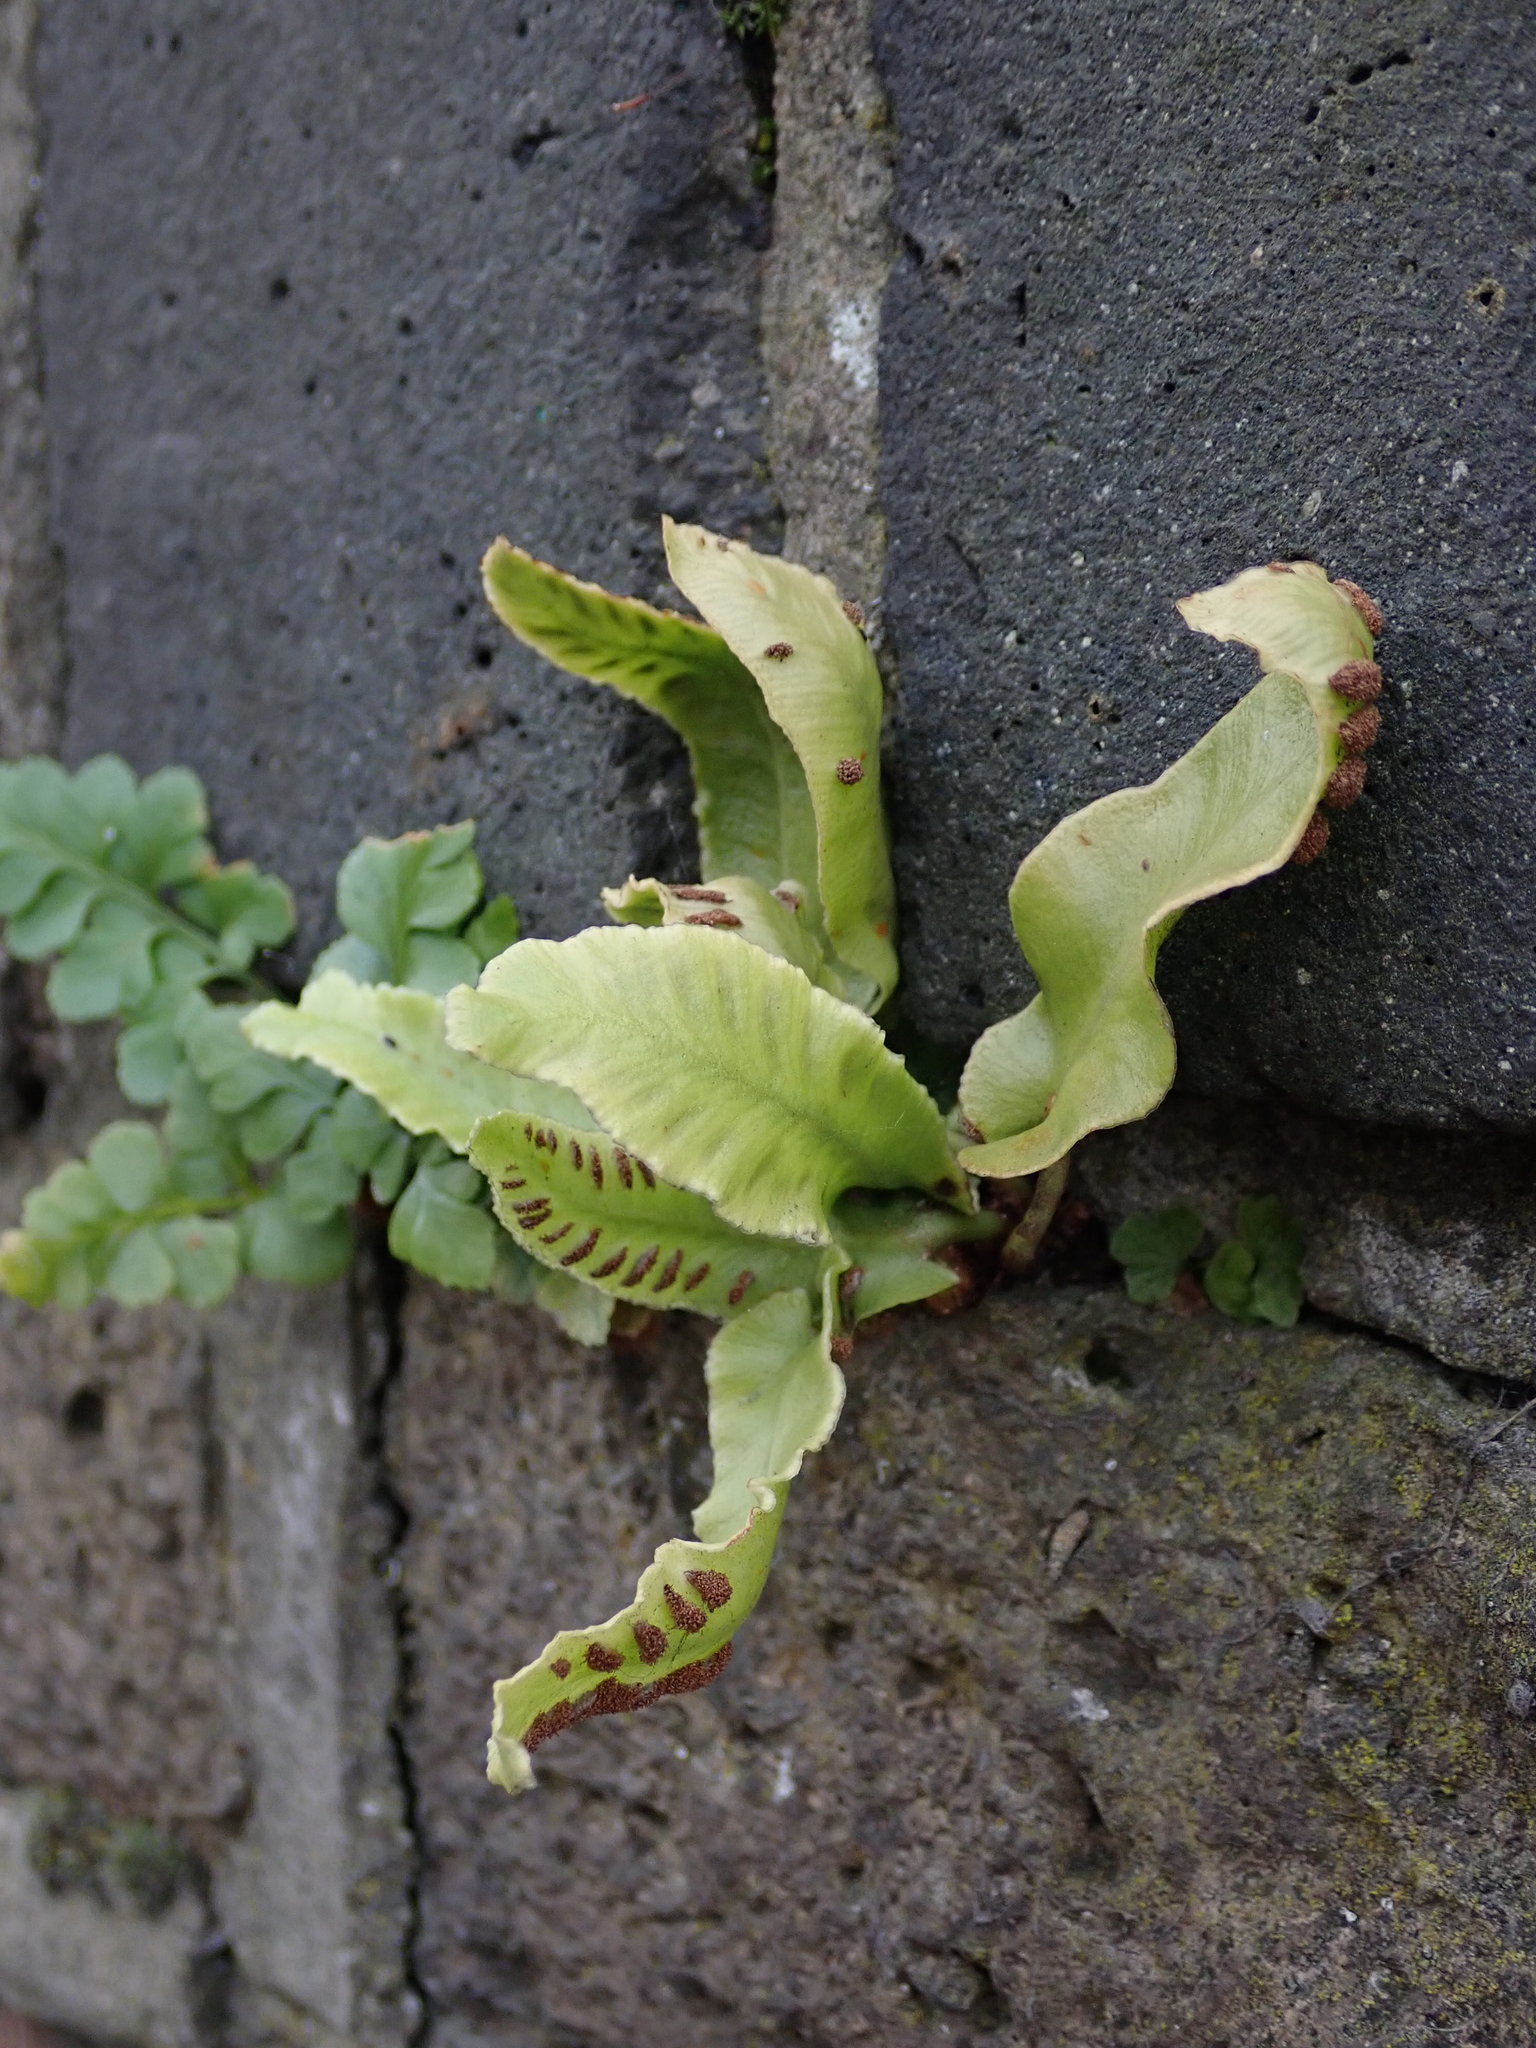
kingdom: Plantae
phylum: Tracheophyta
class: Polypodiopsida
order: Polypodiales
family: Aspleniaceae
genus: Asplenium
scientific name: Asplenium scolopendrium
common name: Hart's-tongue fern
